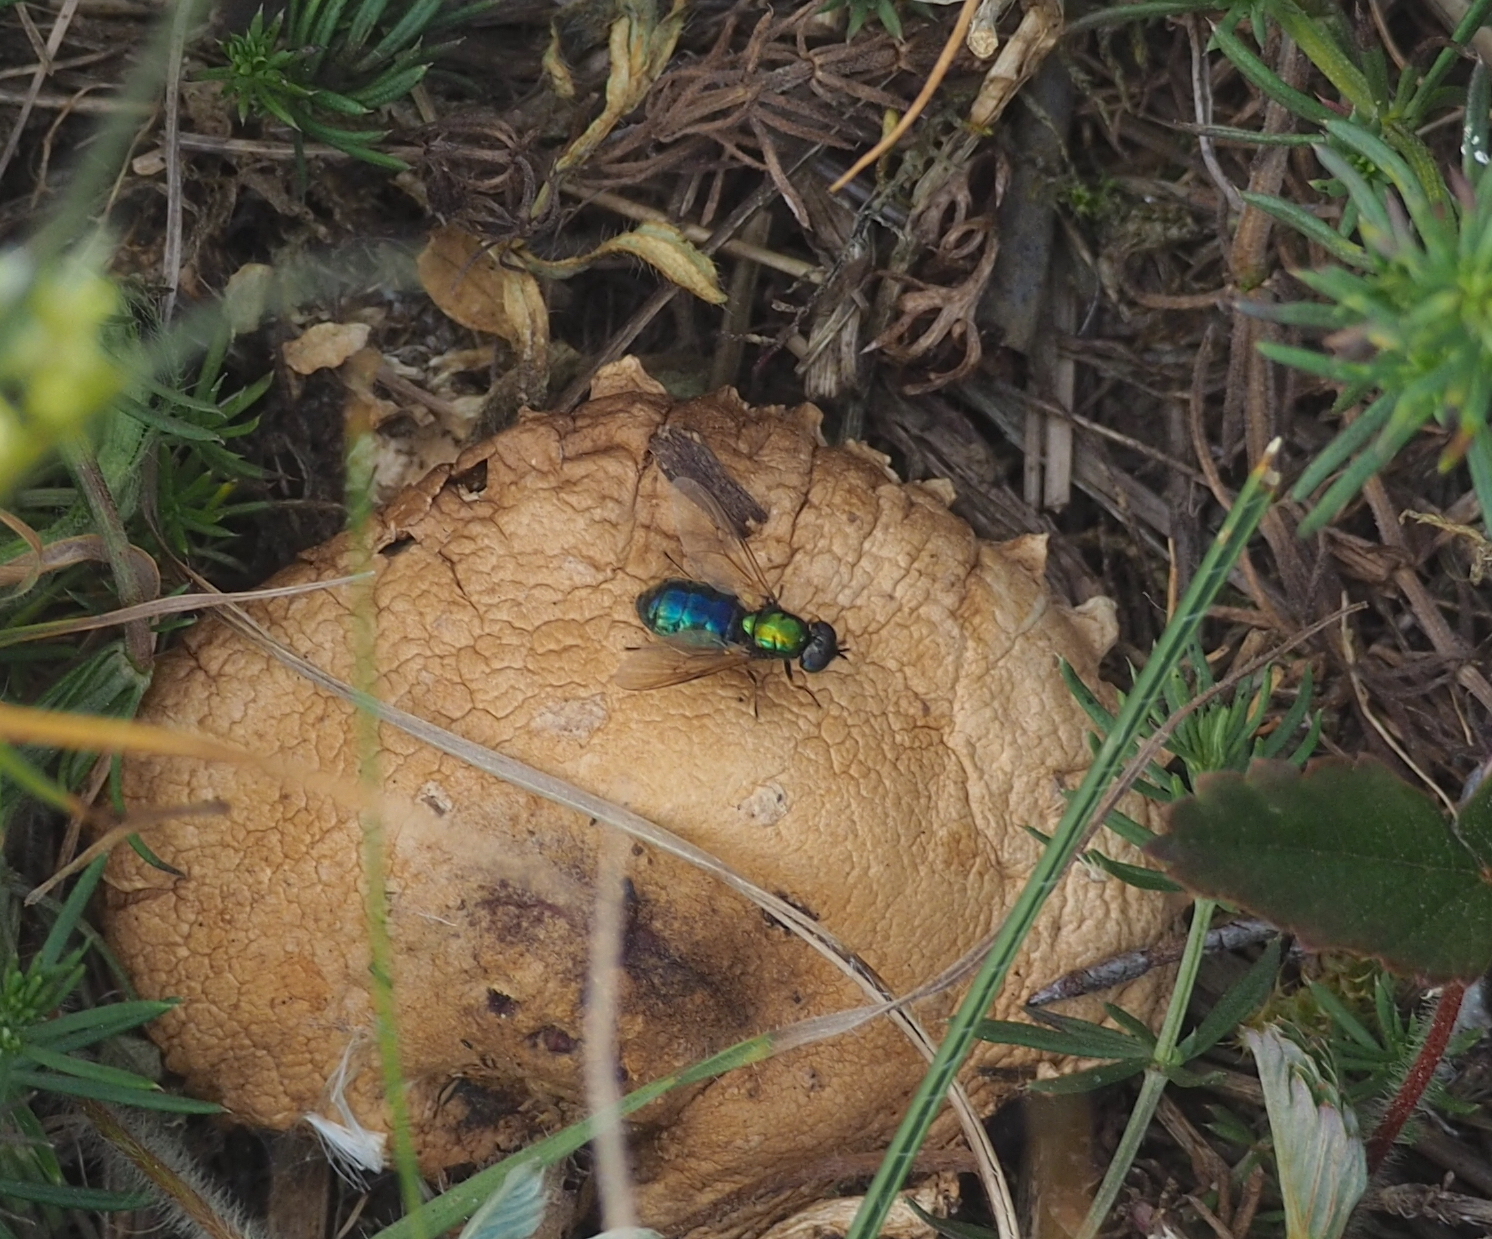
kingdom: Animalia
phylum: Arthropoda
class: Insecta
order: Diptera
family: Stratiomyidae
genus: Chloromyia
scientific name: Chloromyia formosa
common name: Soldier fly
